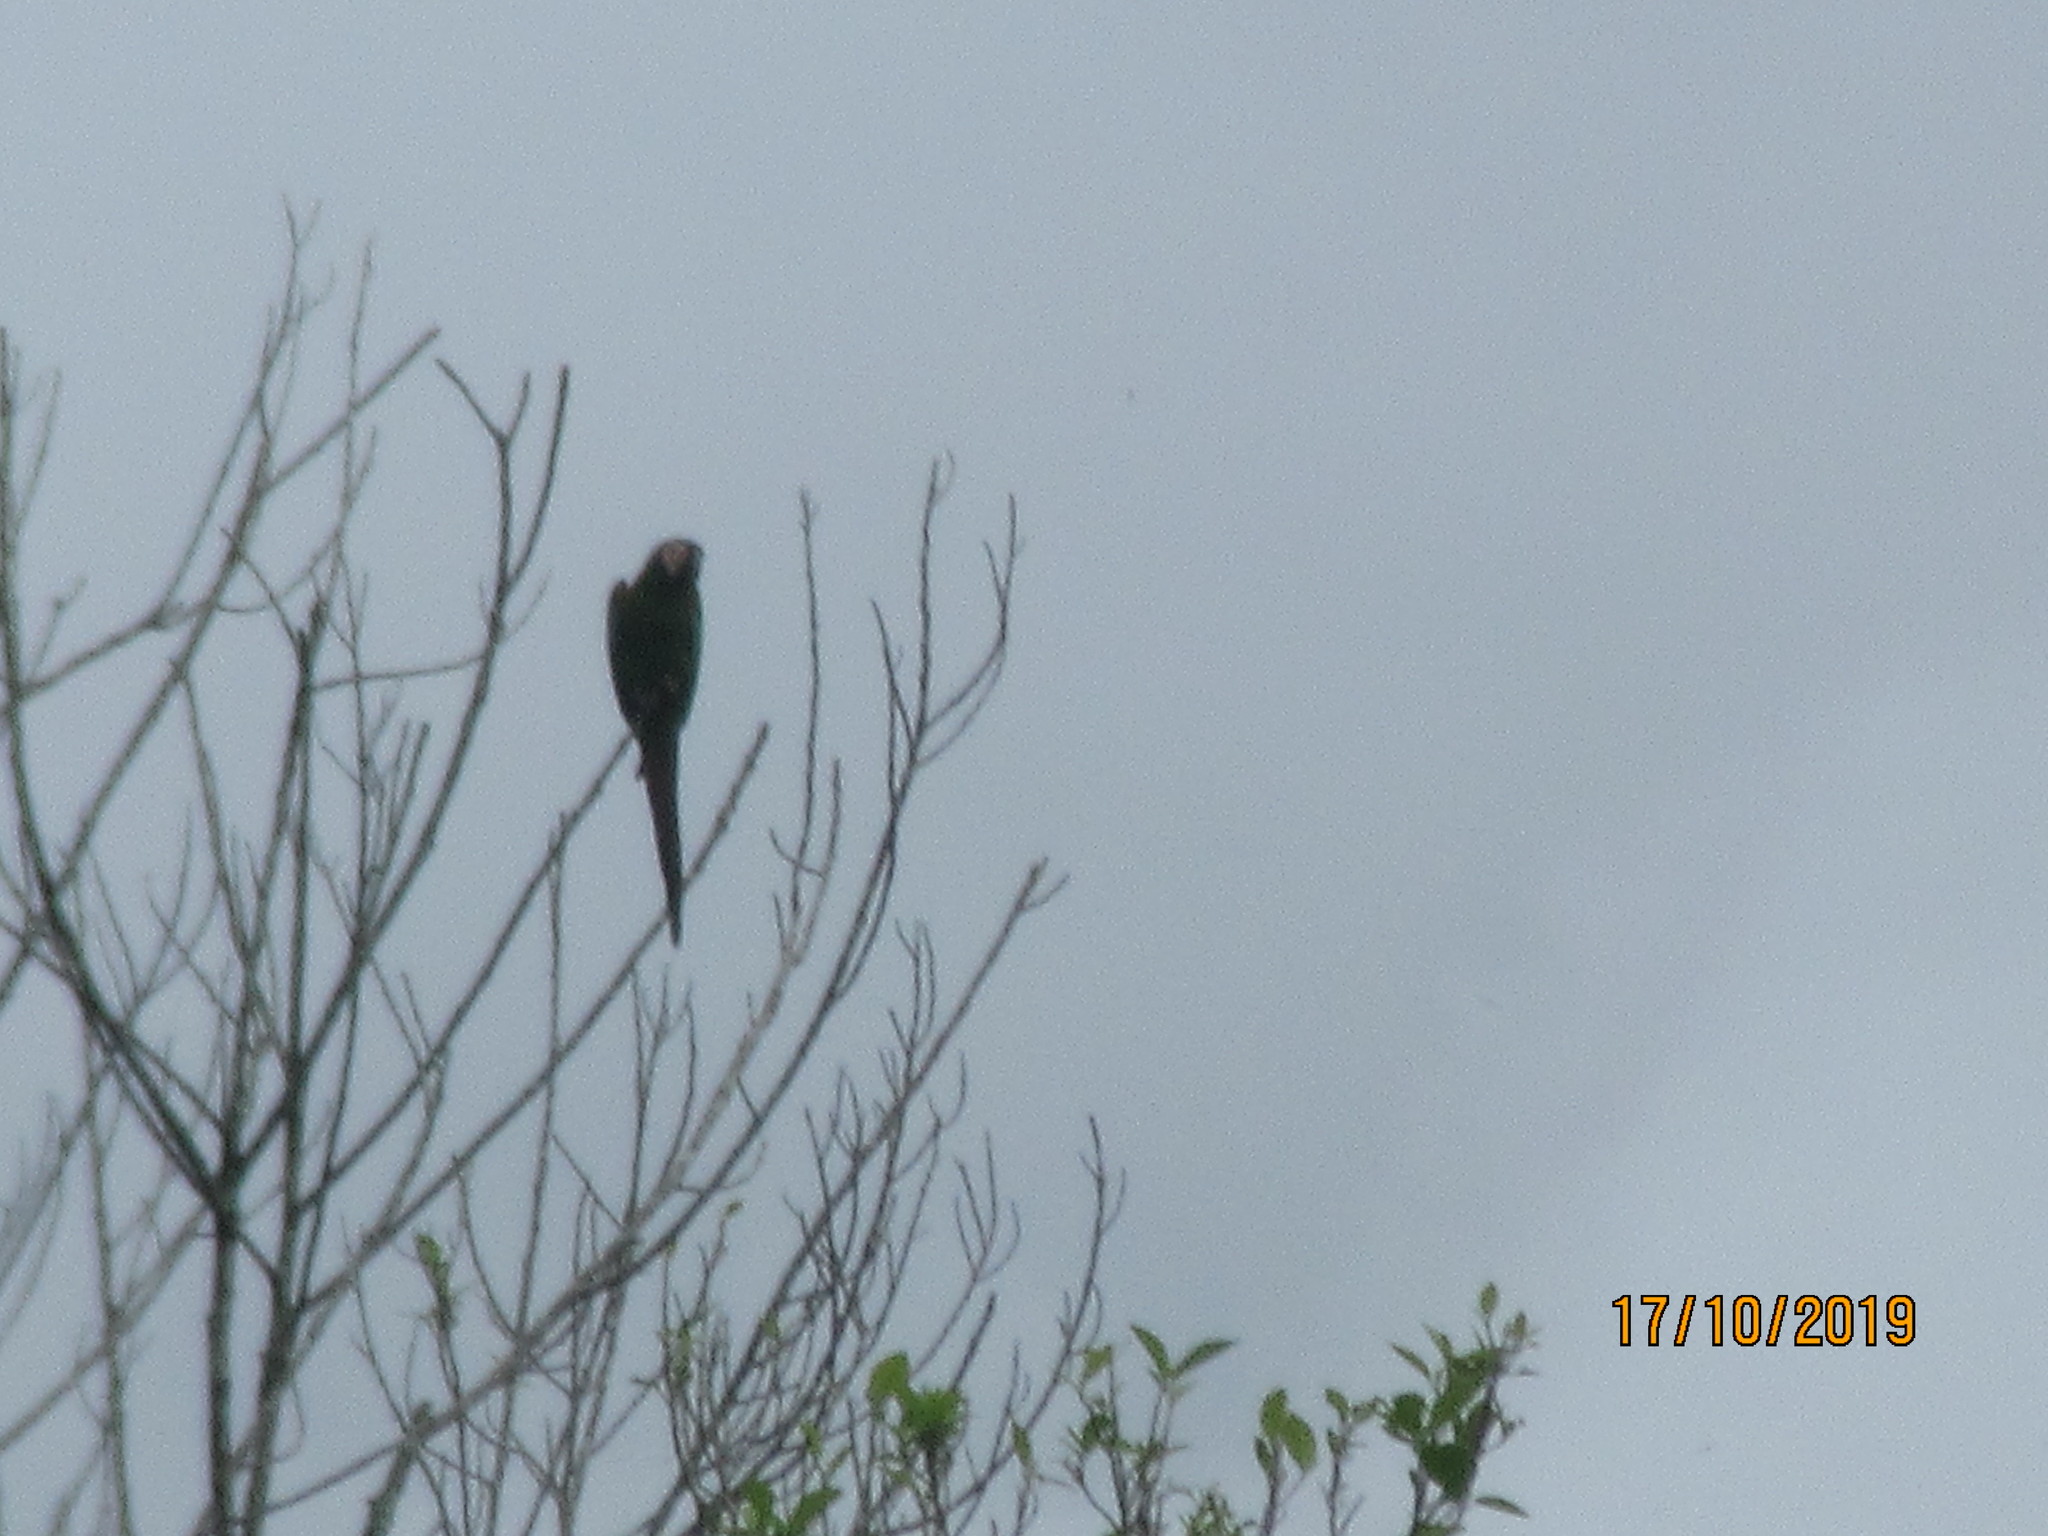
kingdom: Animalia
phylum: Chordata
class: Aves
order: Psittaciformes
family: Psittacidae
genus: Ara
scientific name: Ara severus
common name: Chestnut-fronted macaw
